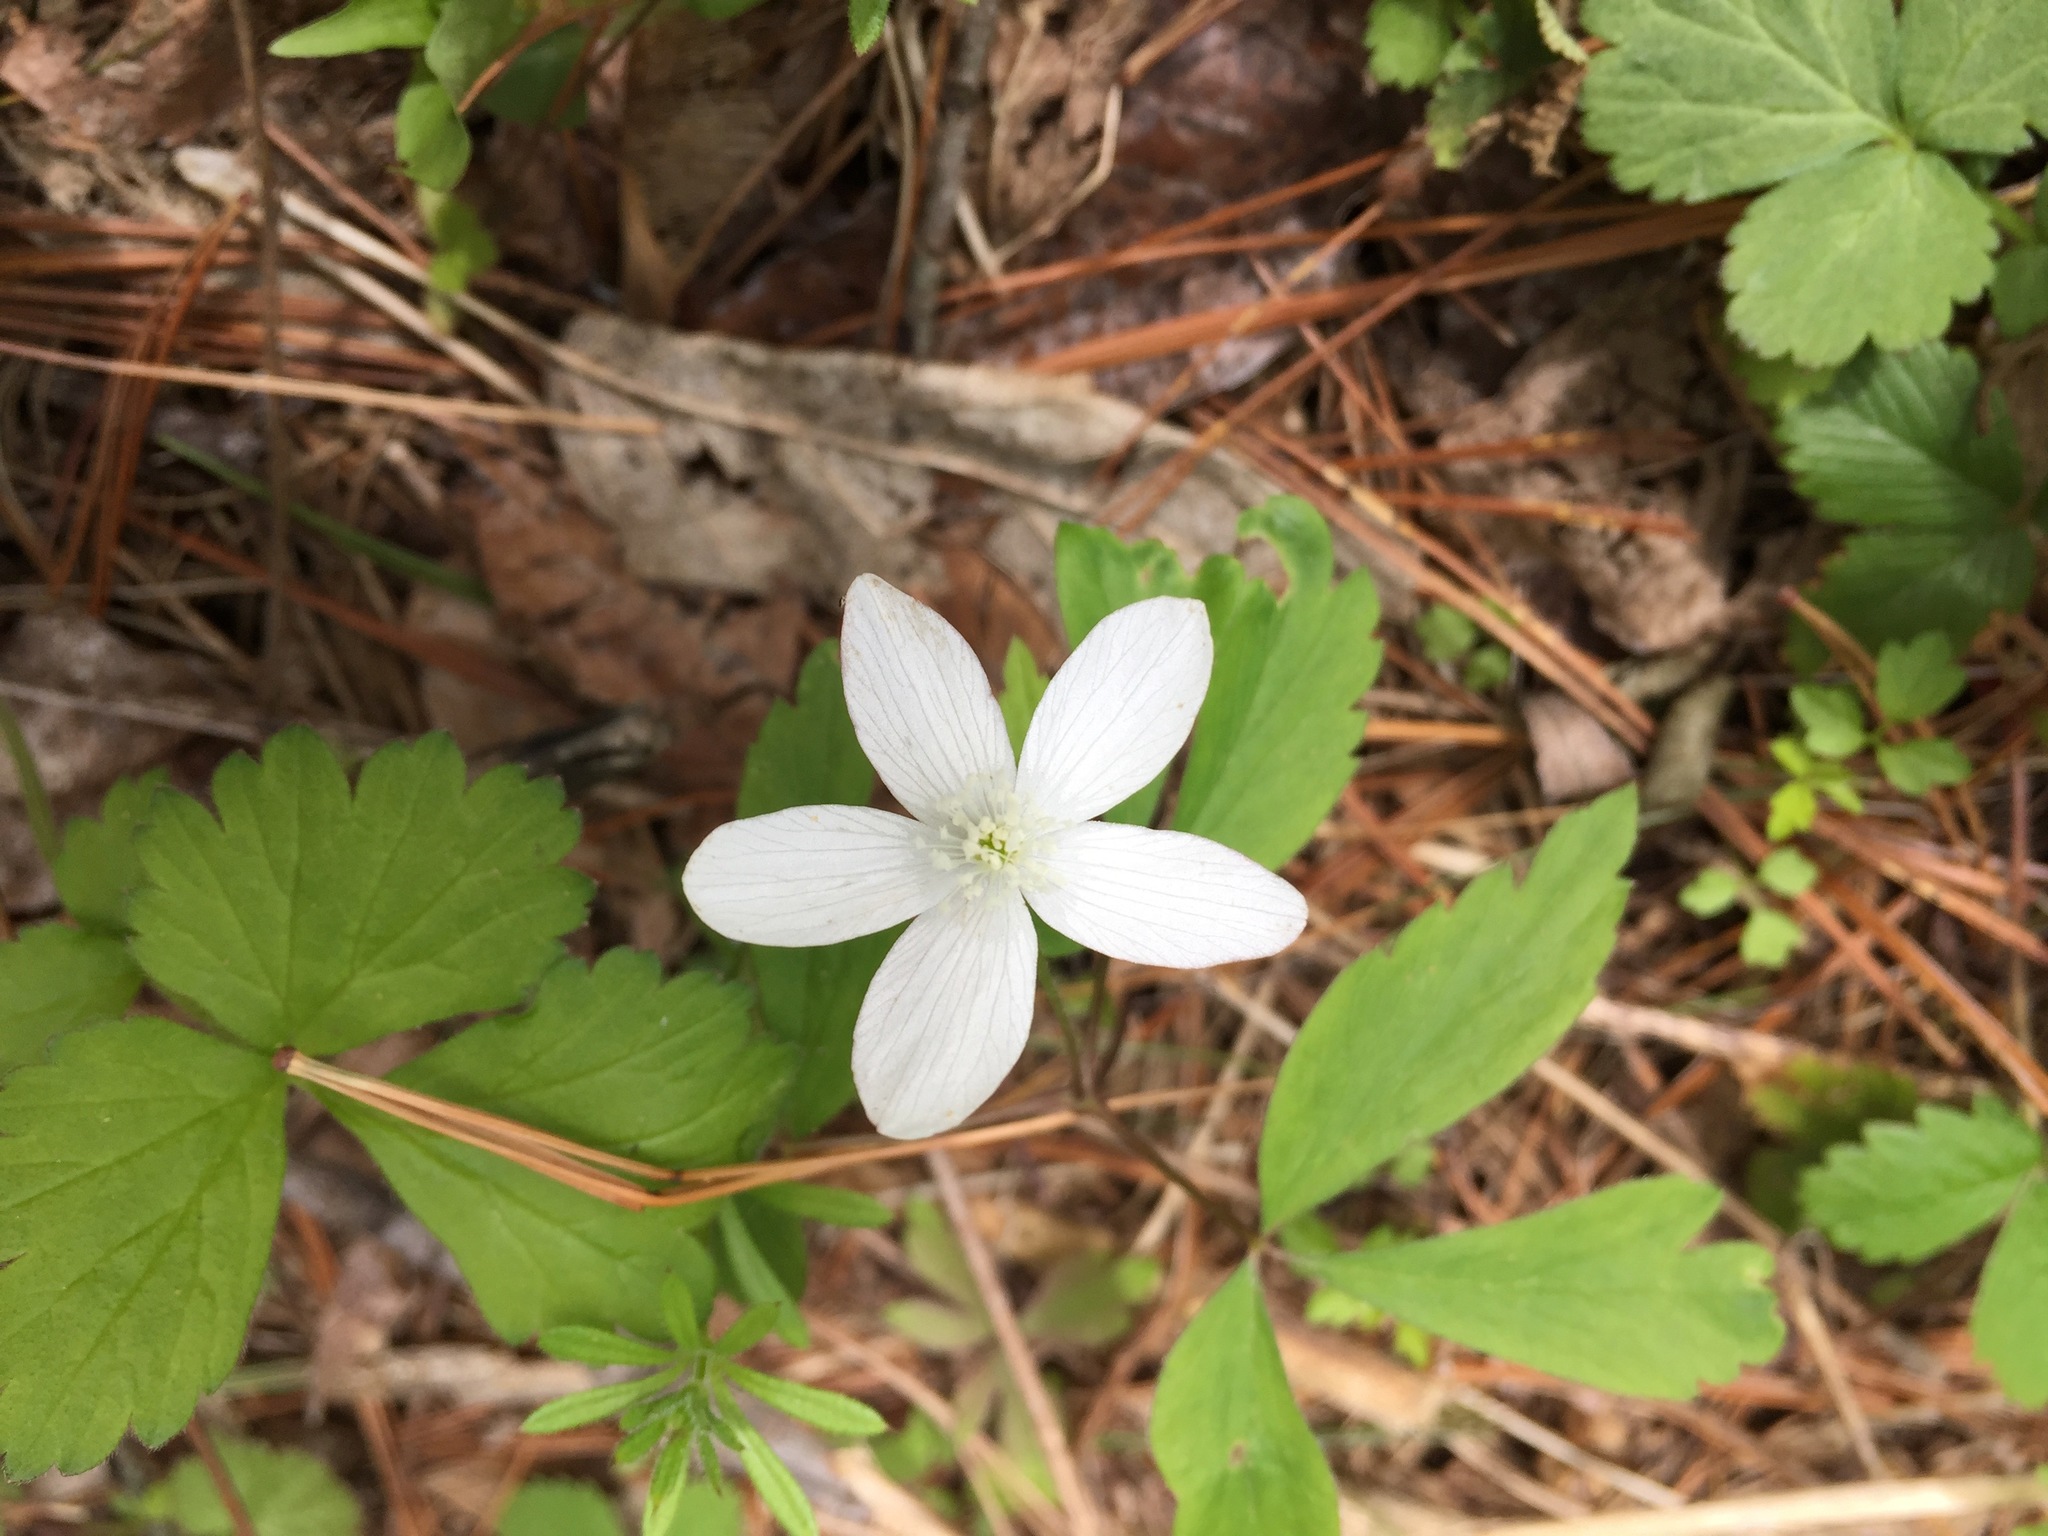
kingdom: Plantae
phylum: Tracheophyta
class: Magnoliopsida
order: Ranunculales
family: Ranunculaceae
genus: Anemone
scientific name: Anemone quinquefolia
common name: Wood anemone
